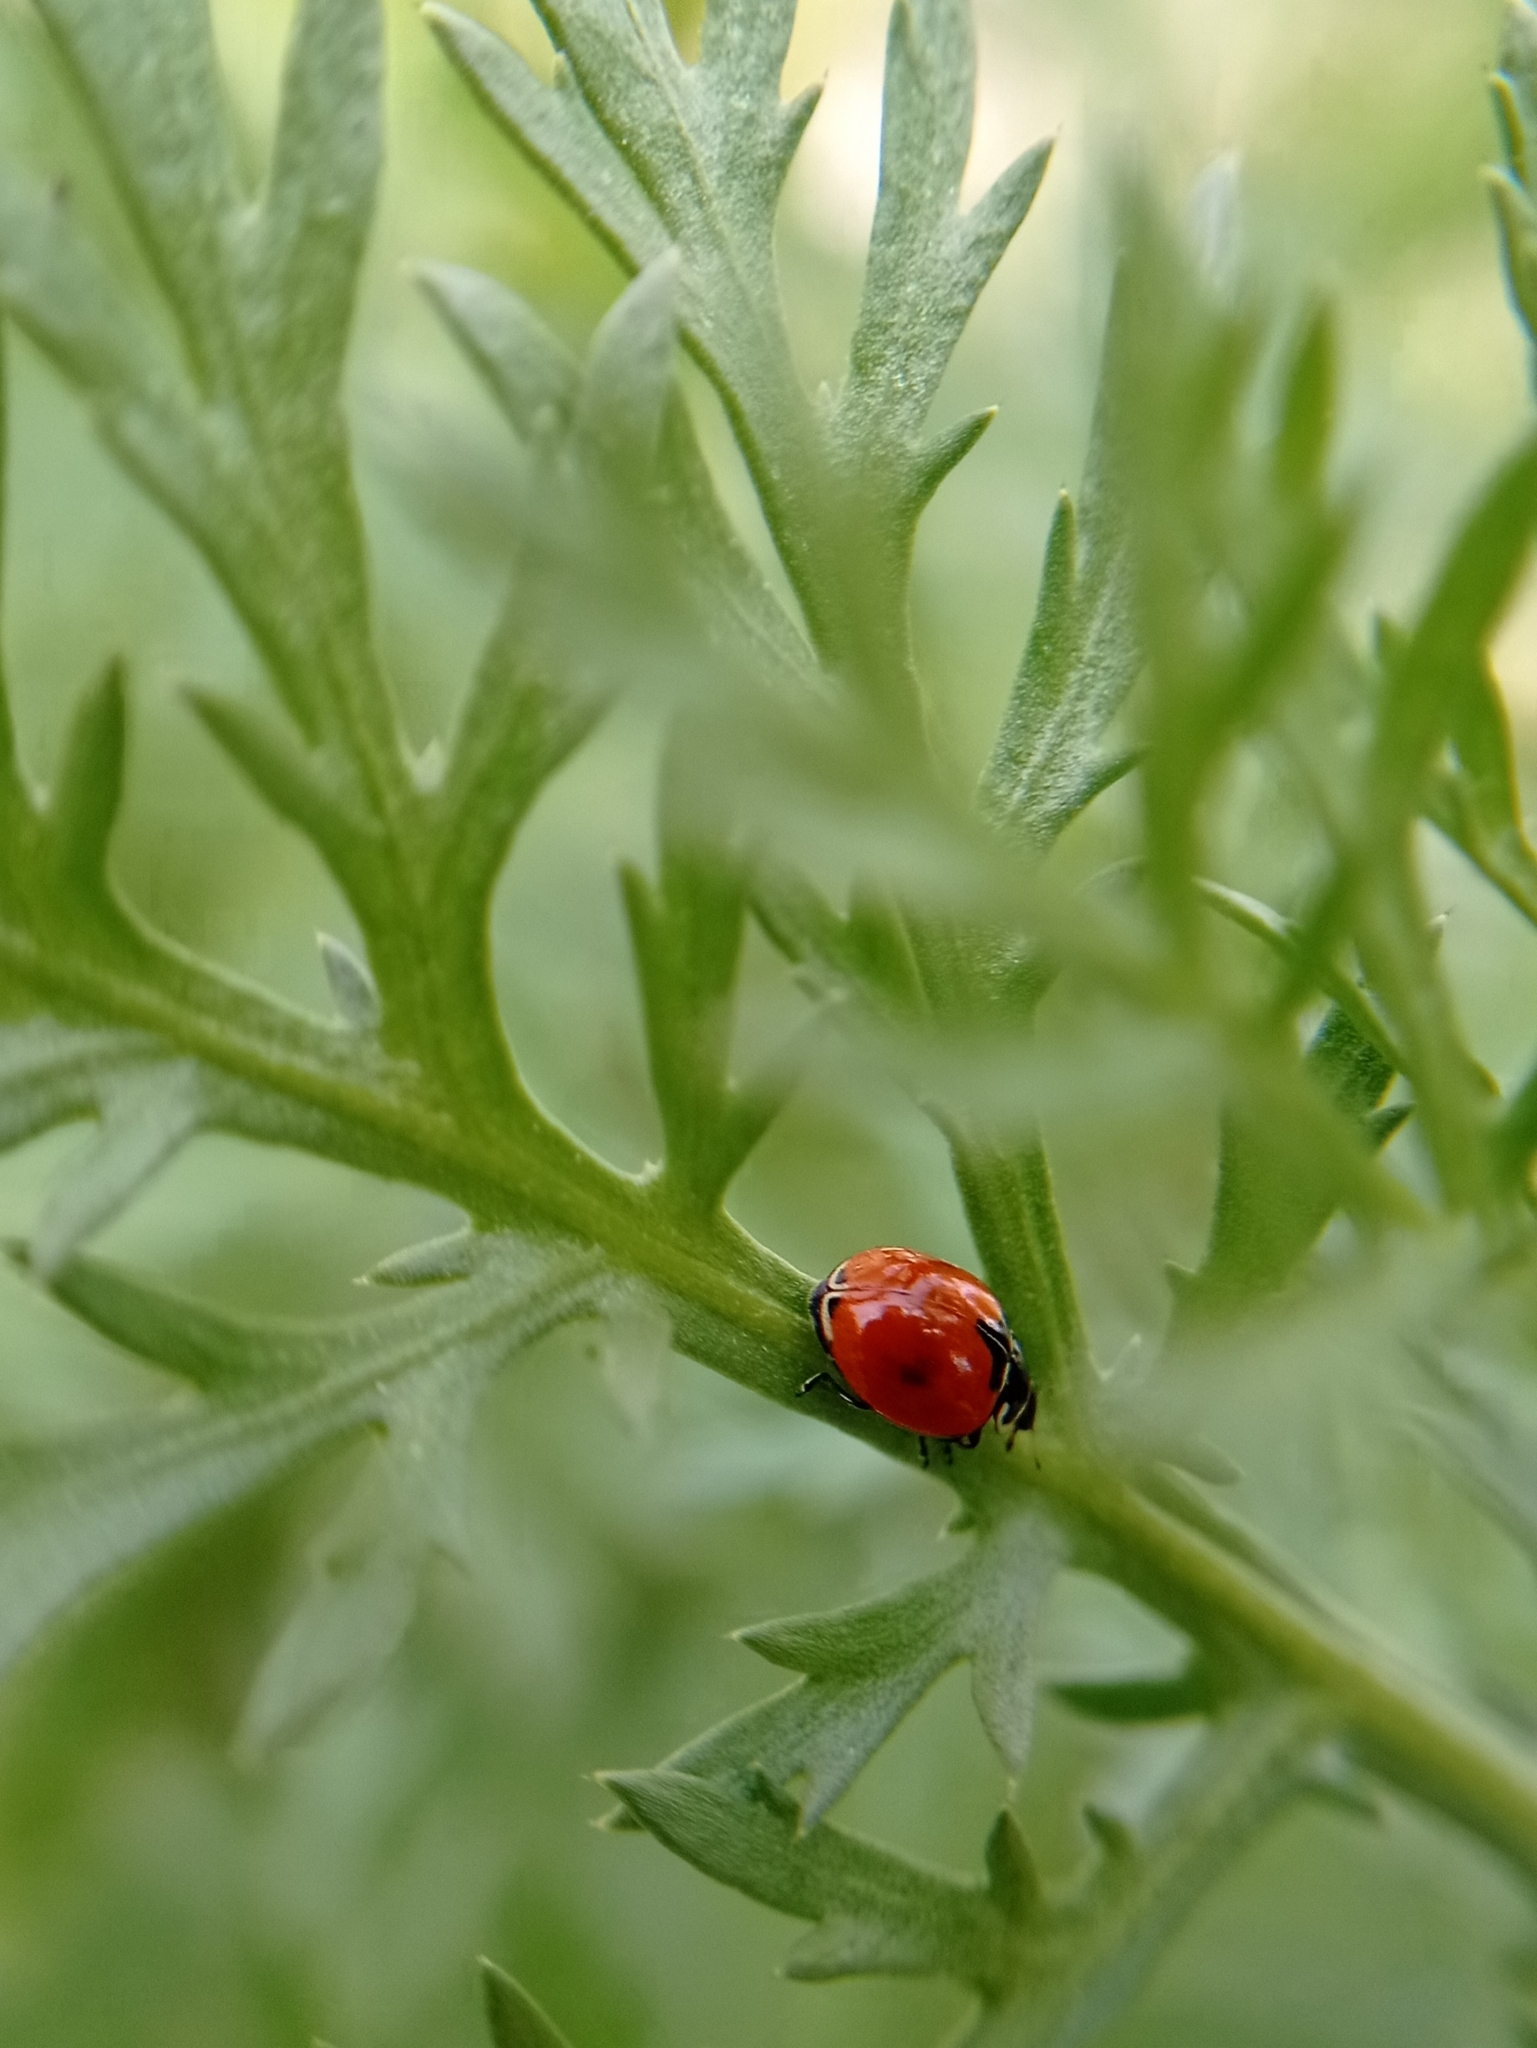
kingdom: Animalia
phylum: Arthropoda
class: Insecta
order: Coleoptera
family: Coccinellidae
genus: Adalia
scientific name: Adalia deficiens
